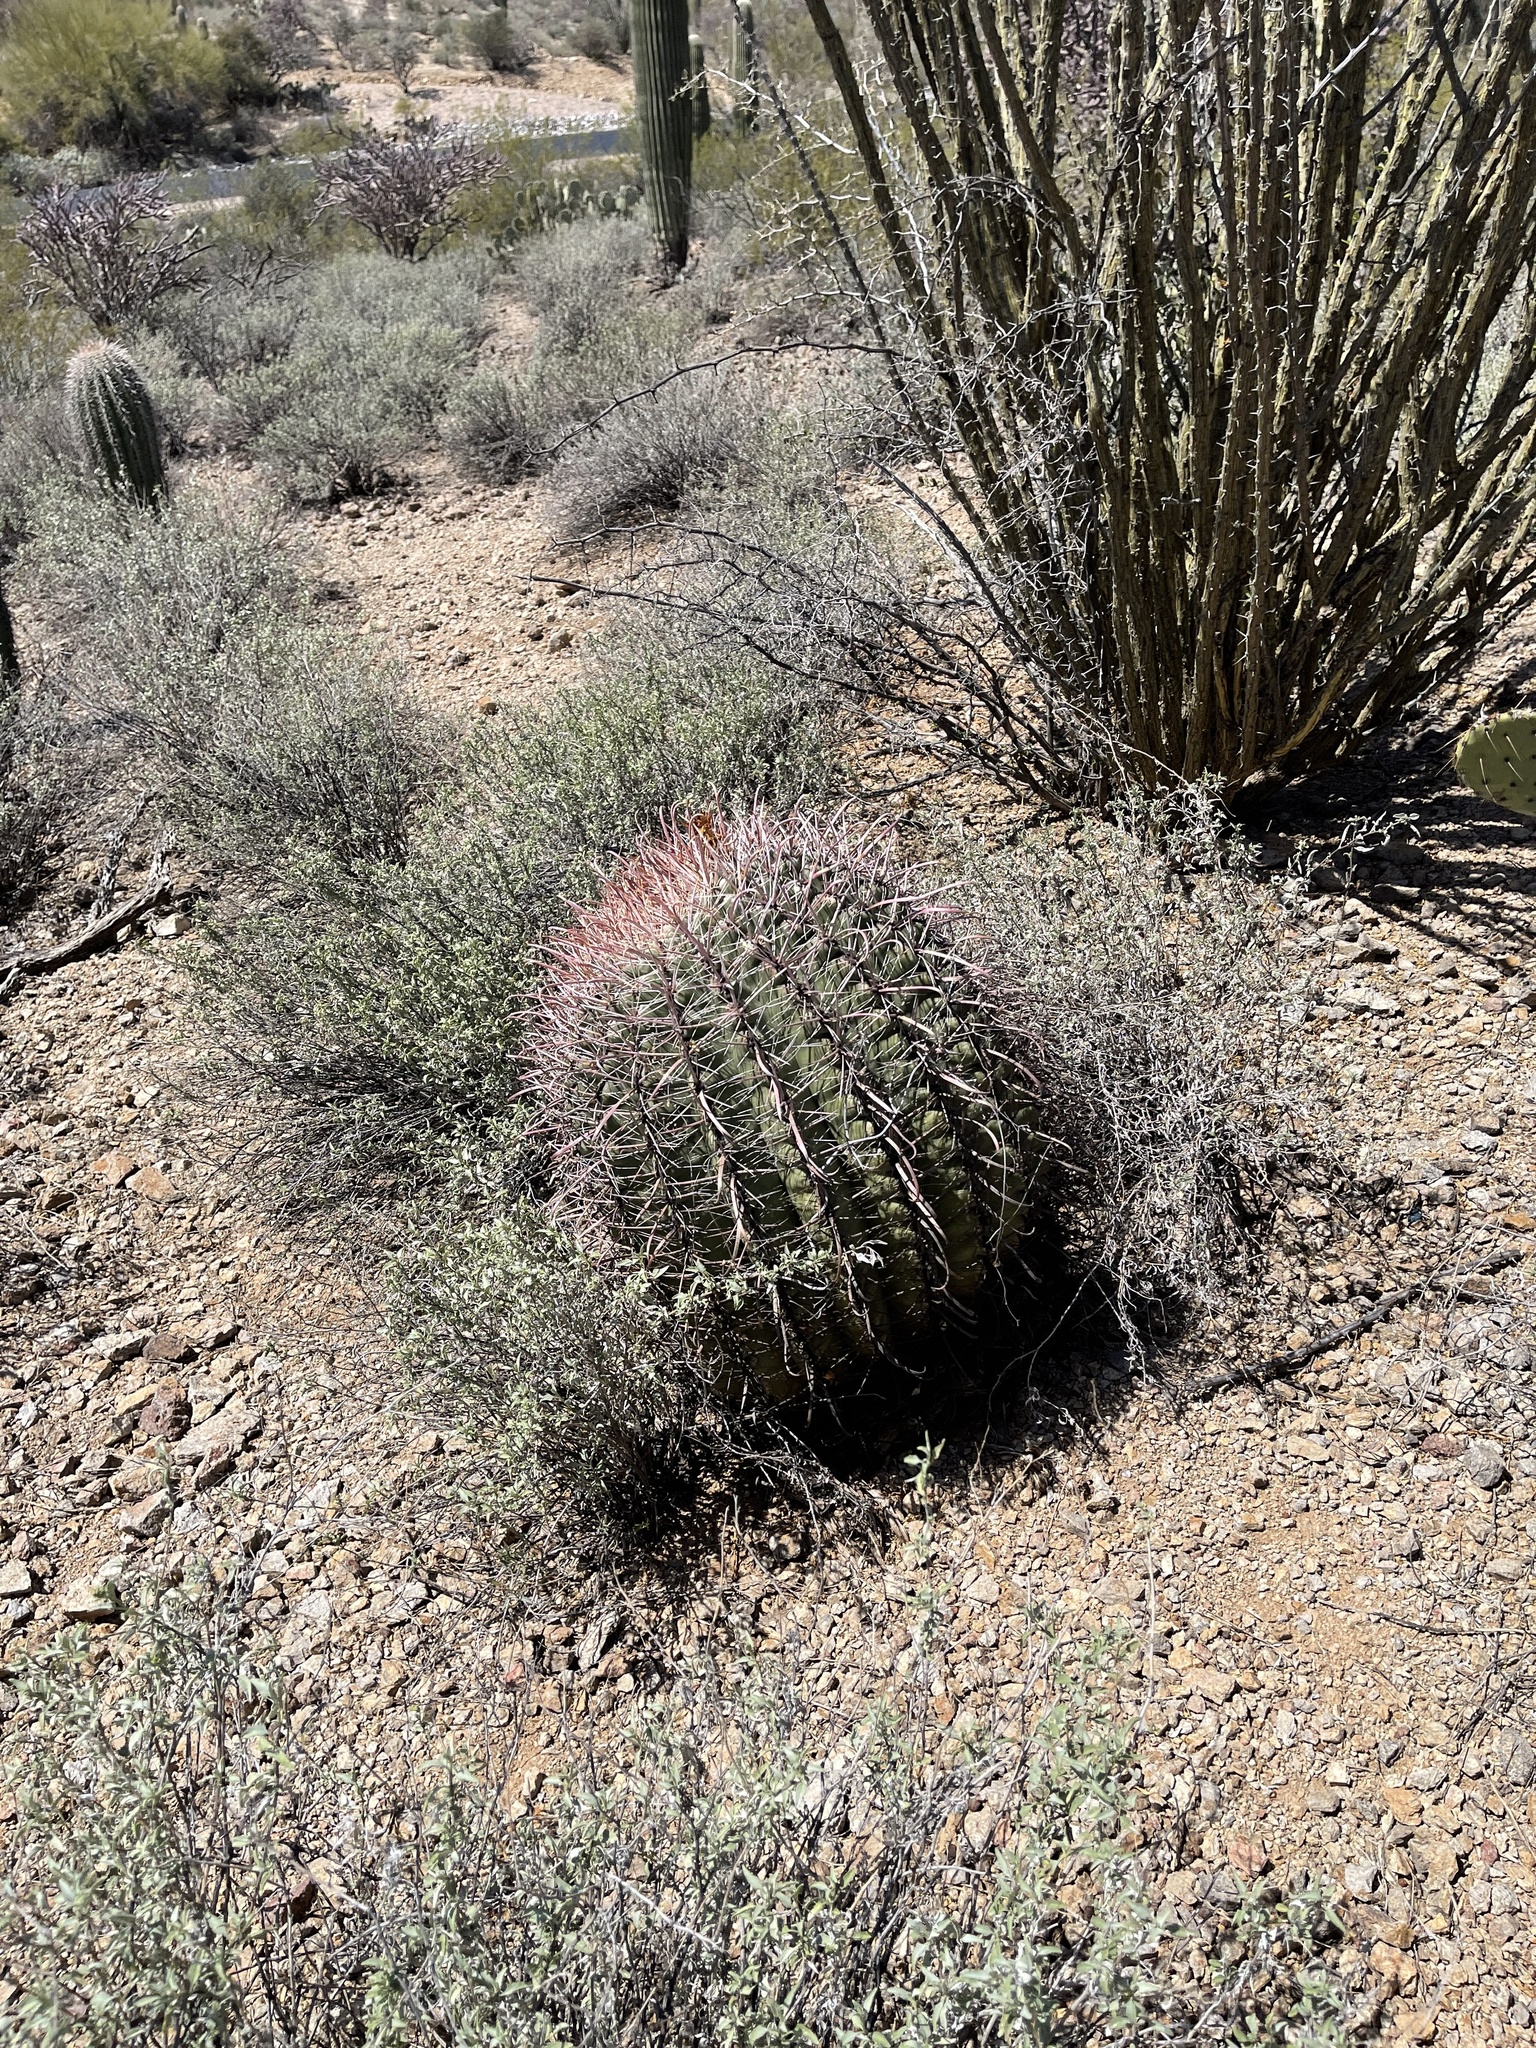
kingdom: Plantae
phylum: Tracheophyta
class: Magnoliopsida
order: Caryophyllales
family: Cactaceae
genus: Ferocactus
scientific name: Ferocactus wislizeni
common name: Candy barrel cactus
